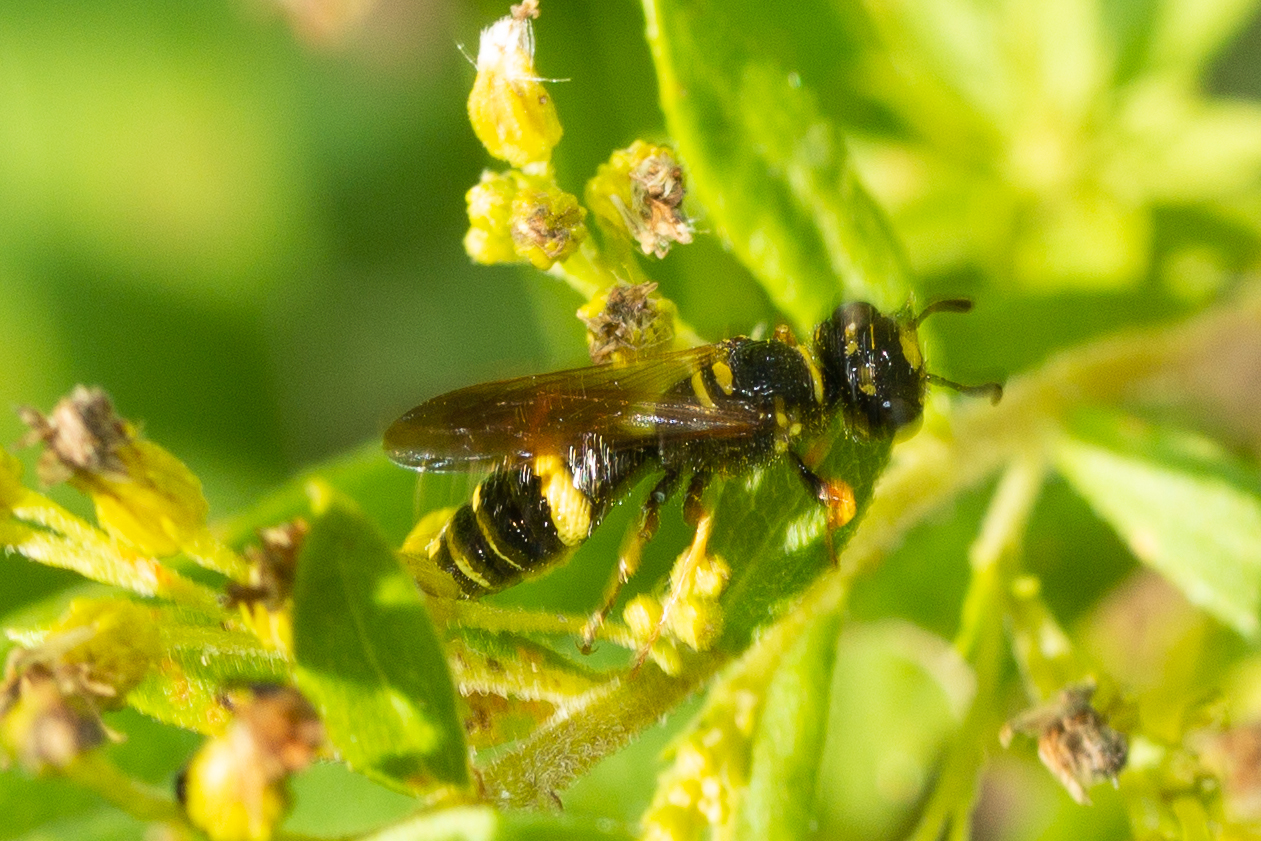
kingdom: Animalia
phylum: Arthropoda
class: Insecta
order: Hymenoptera
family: Crabronidae
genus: Philanthus
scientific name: Philanthus gibbosus
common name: Humped beewolf
